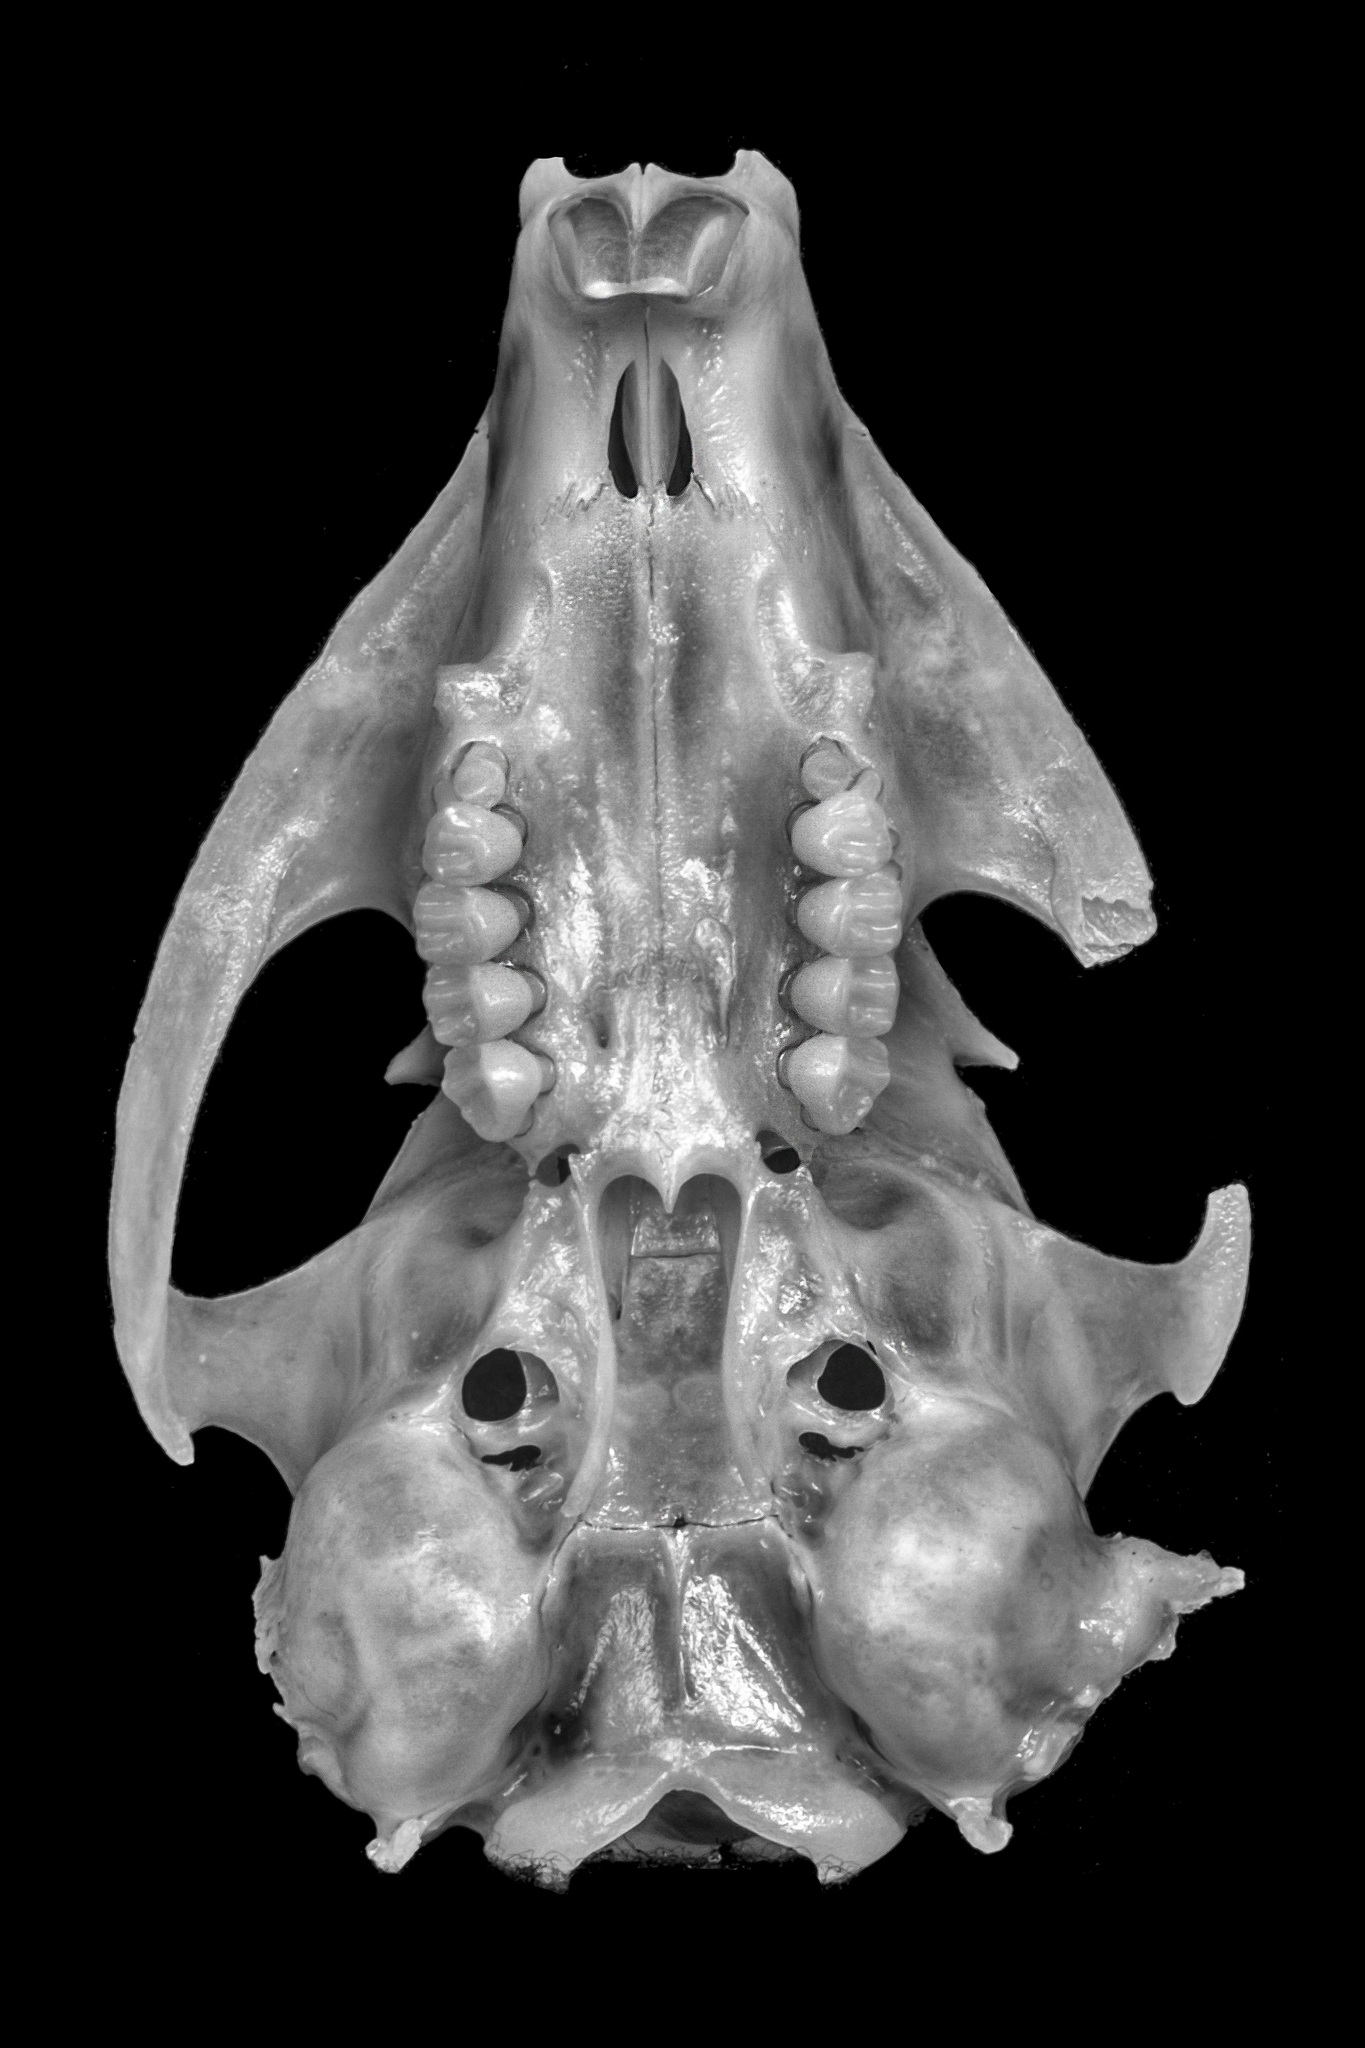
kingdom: Animalia
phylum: Chordata
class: Mammalia
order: Rodentia
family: Sciuridae
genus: Otospermophilus
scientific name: Otospermophilus beecheyi
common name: California ground squirrel
